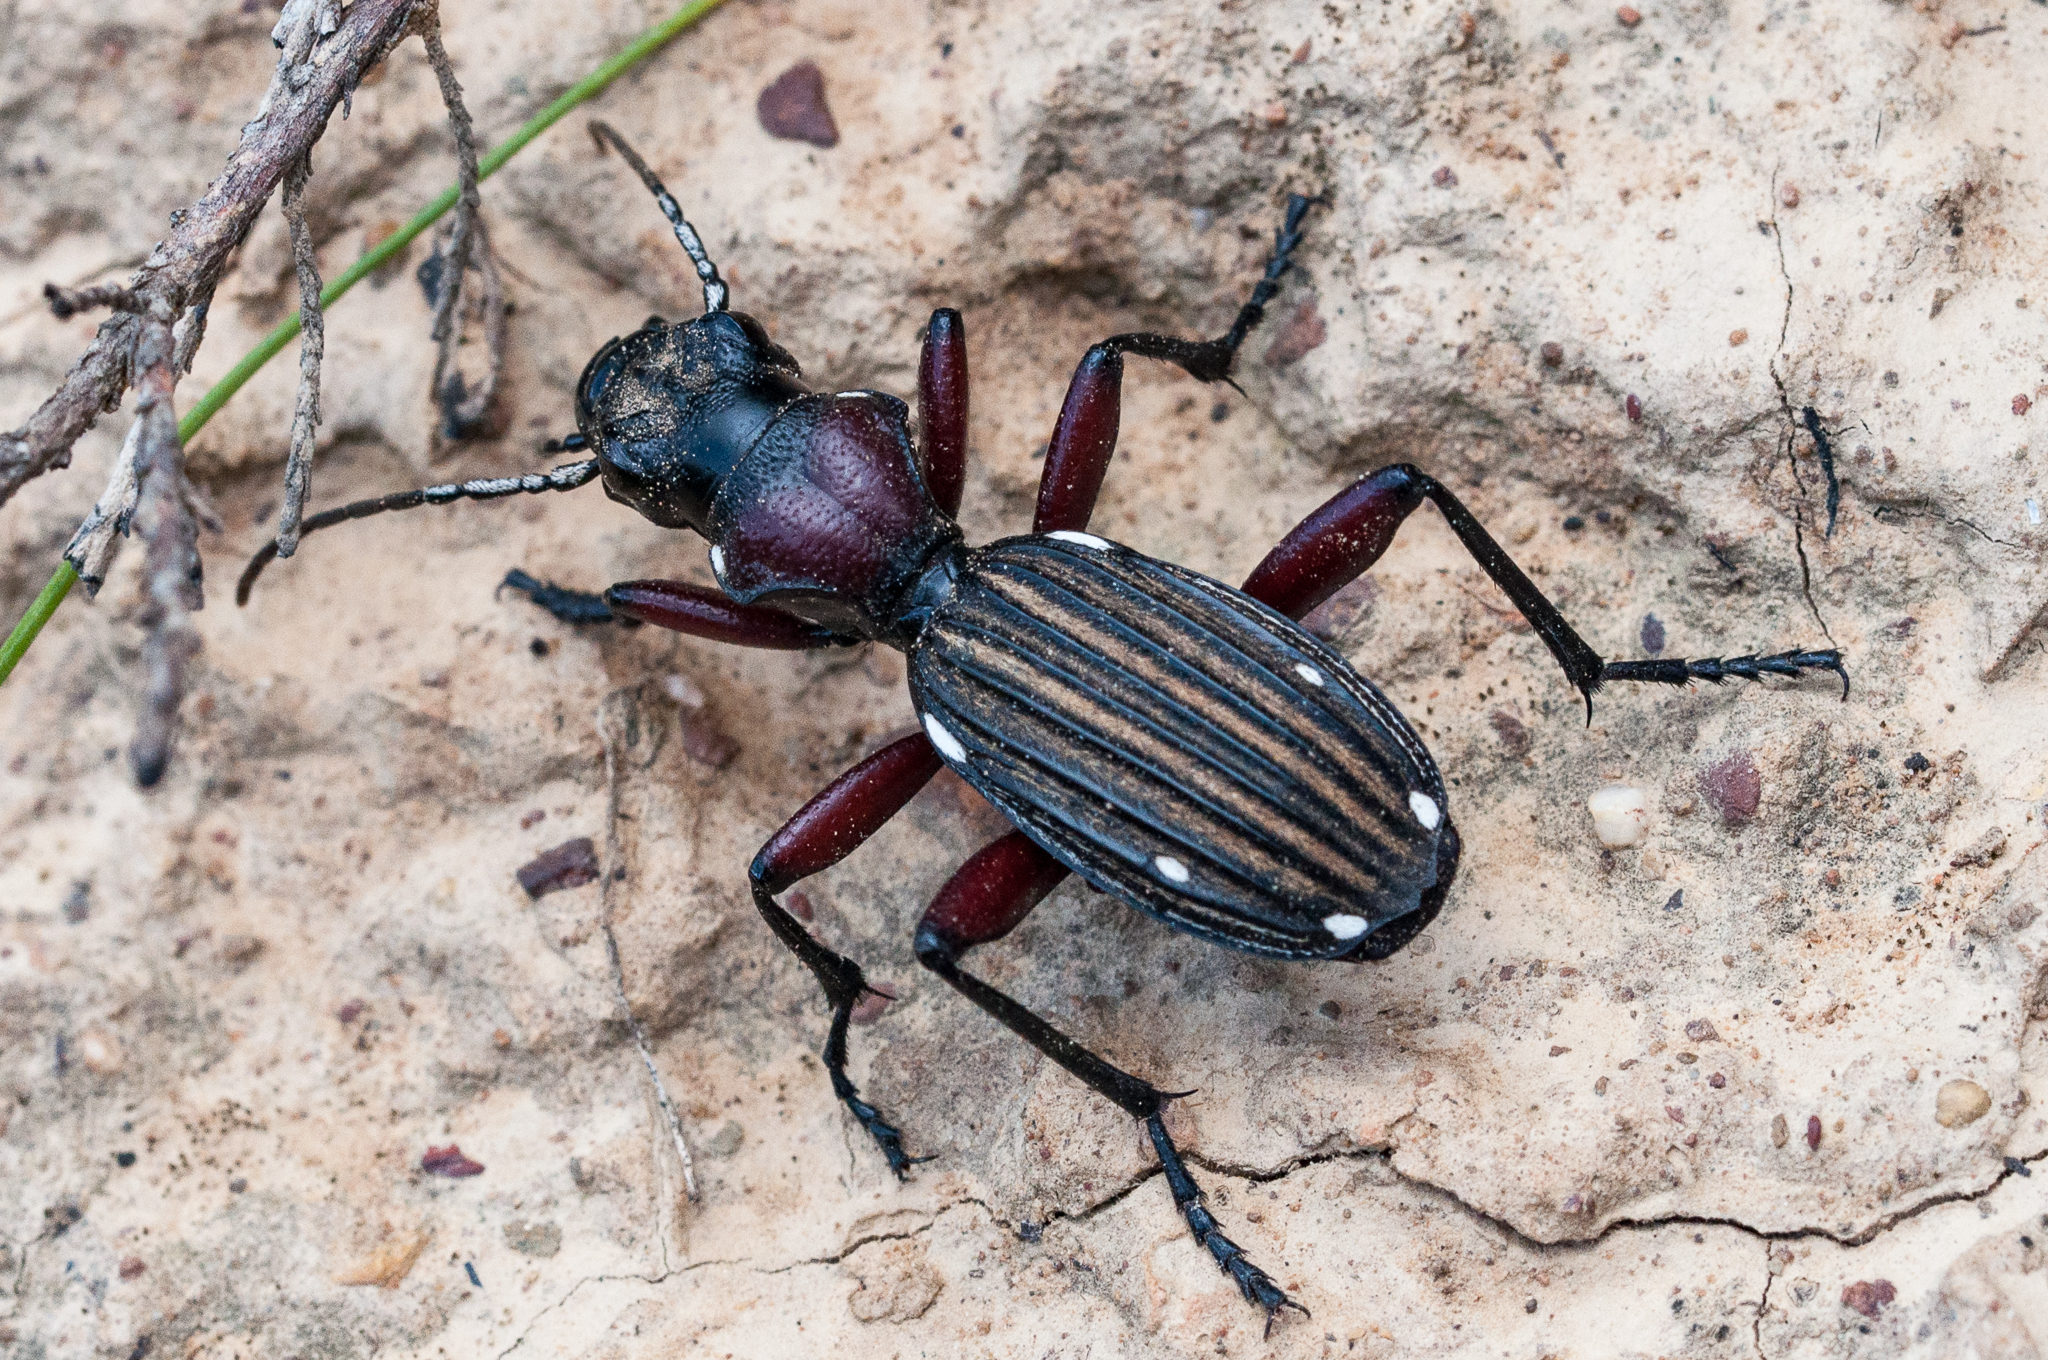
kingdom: Animalia
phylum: Arthropoda
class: Insecta
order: Coleoptera
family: Carabidae
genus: Anthia
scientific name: Anthia decemguttata
